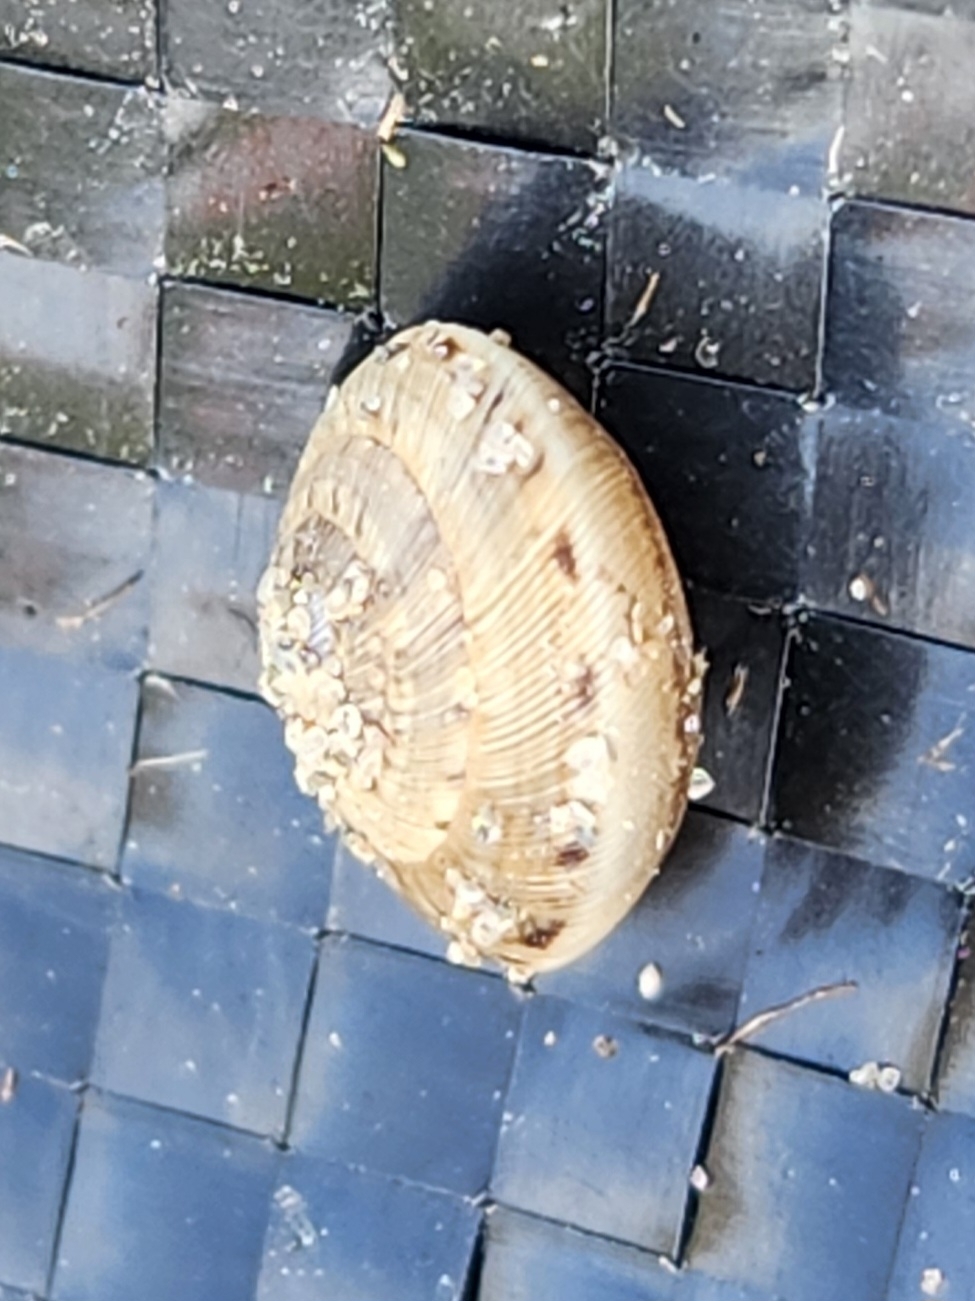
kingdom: Animalia
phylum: Mollusca
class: Gastropoda
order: Stylommatophora
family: Geomitridae
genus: Xeroplexa
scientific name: Xeroplexa intersecta
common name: Wrinkled snail
